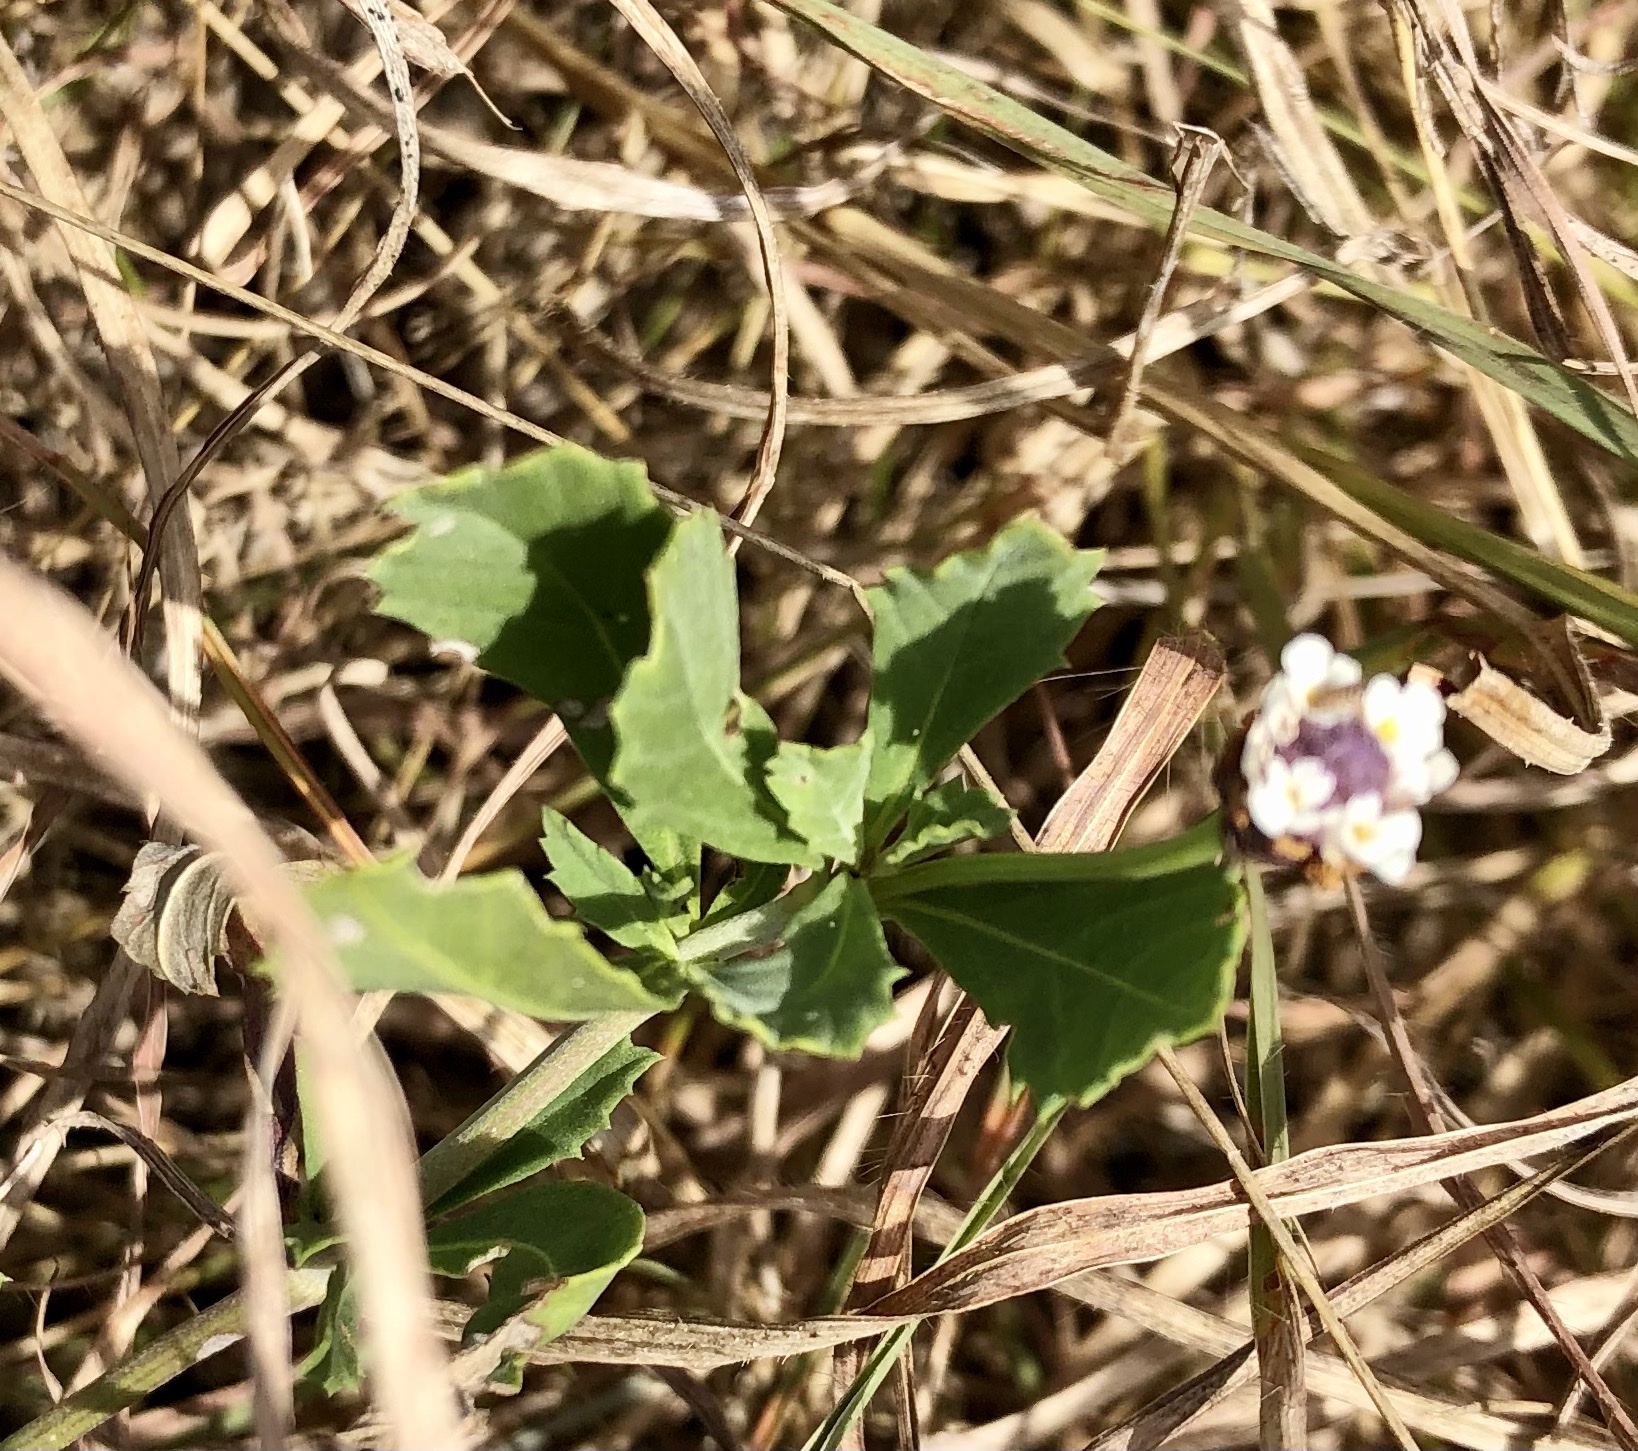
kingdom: Plantae
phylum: Tracheophyta
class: Magnoliopsida
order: Lamiales
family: Verbenaceae
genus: Phyla
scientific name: Phyla nodiflora
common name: Frogfruit
